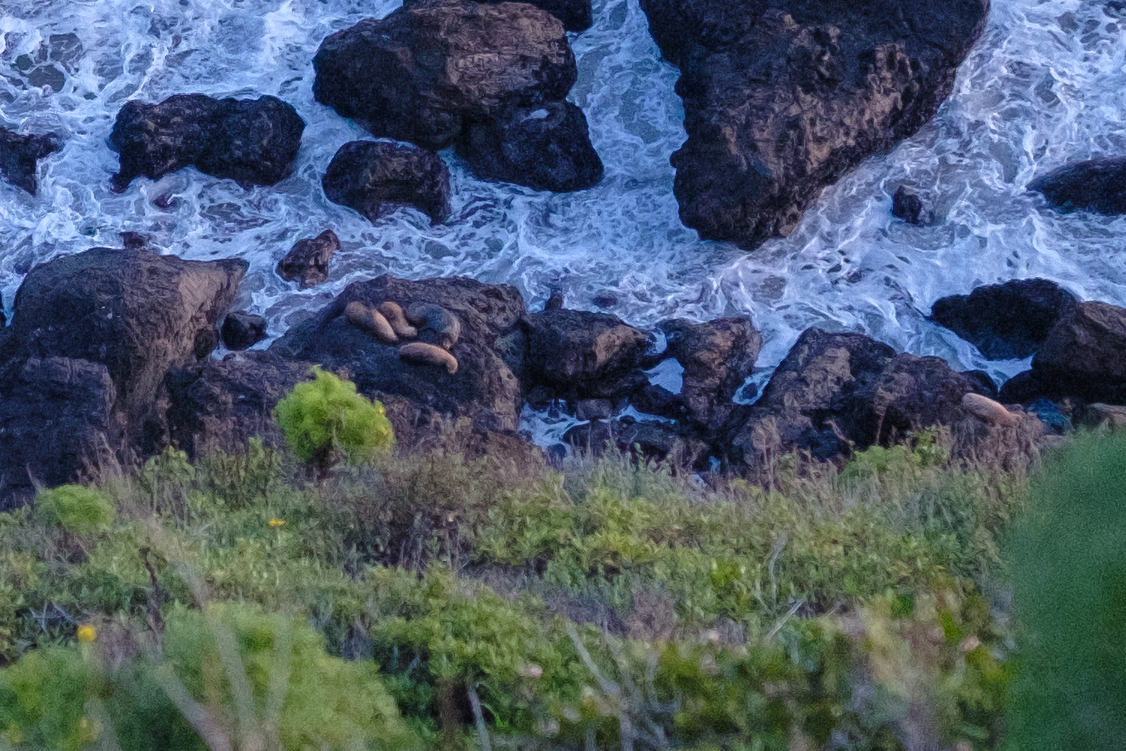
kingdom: Animalia
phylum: Chordata
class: Mammalia
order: Carnivora
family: Otariidae
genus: Zalophus
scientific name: Zalophus californianus
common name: California sea lion
